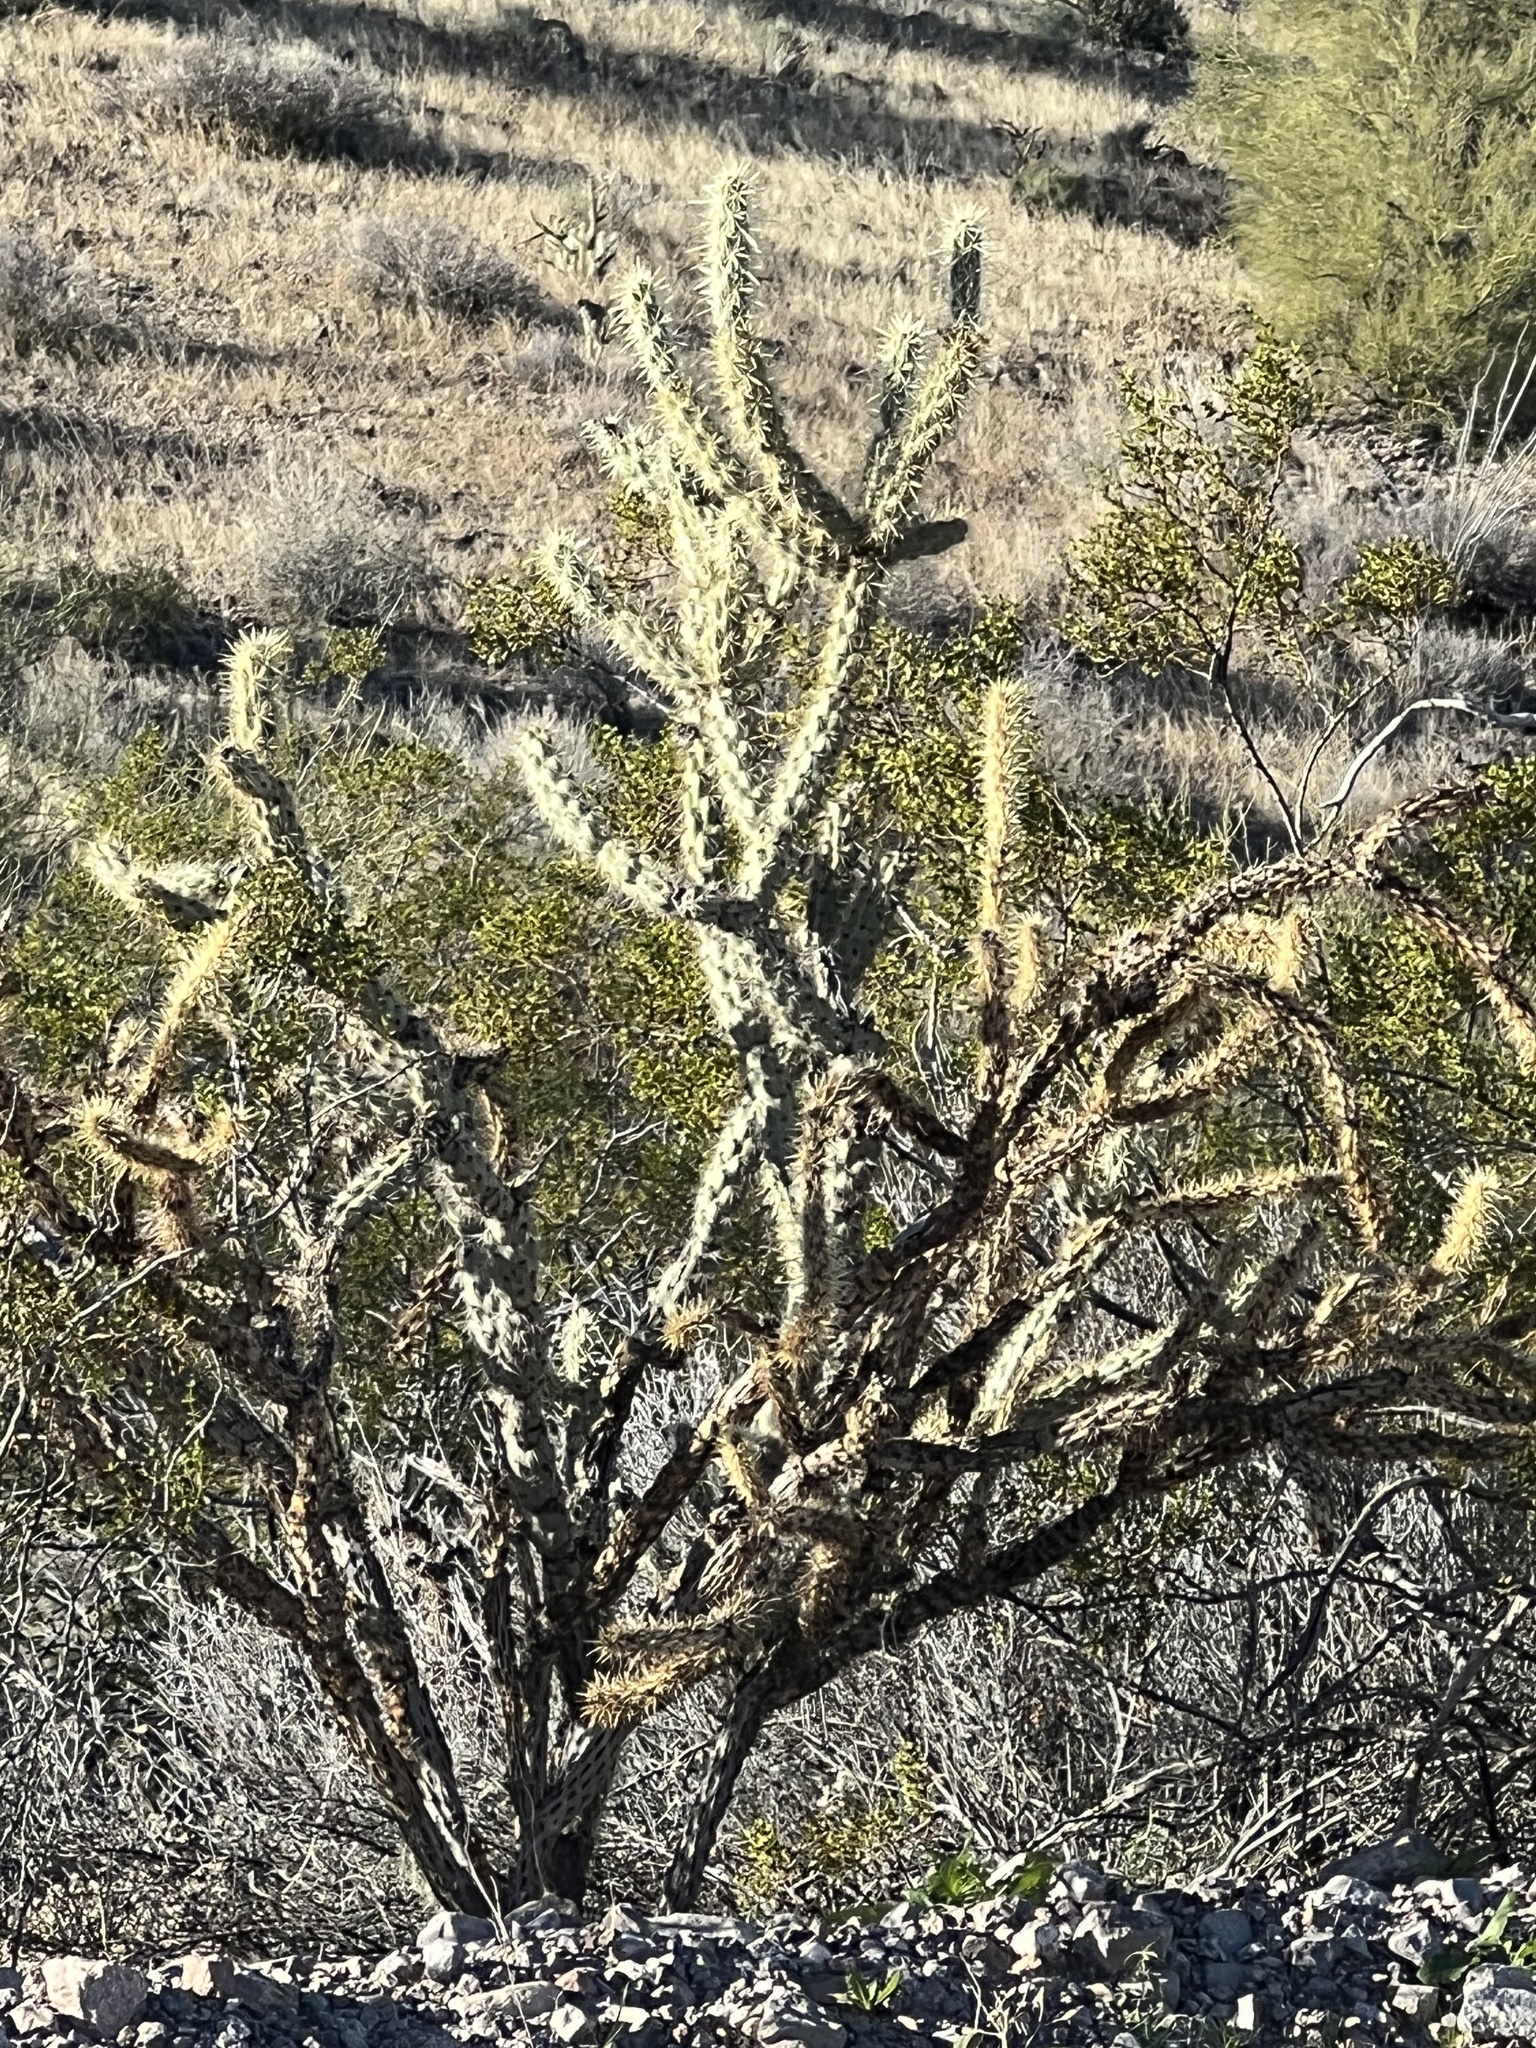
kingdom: Plantae
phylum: Tracheophyta
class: Magnoliopsida
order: Caryophyllales
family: Cactaceae
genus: Cylindropuntia
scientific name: Cylindropuntia acanthocarpa
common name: Buckhorn cholla
